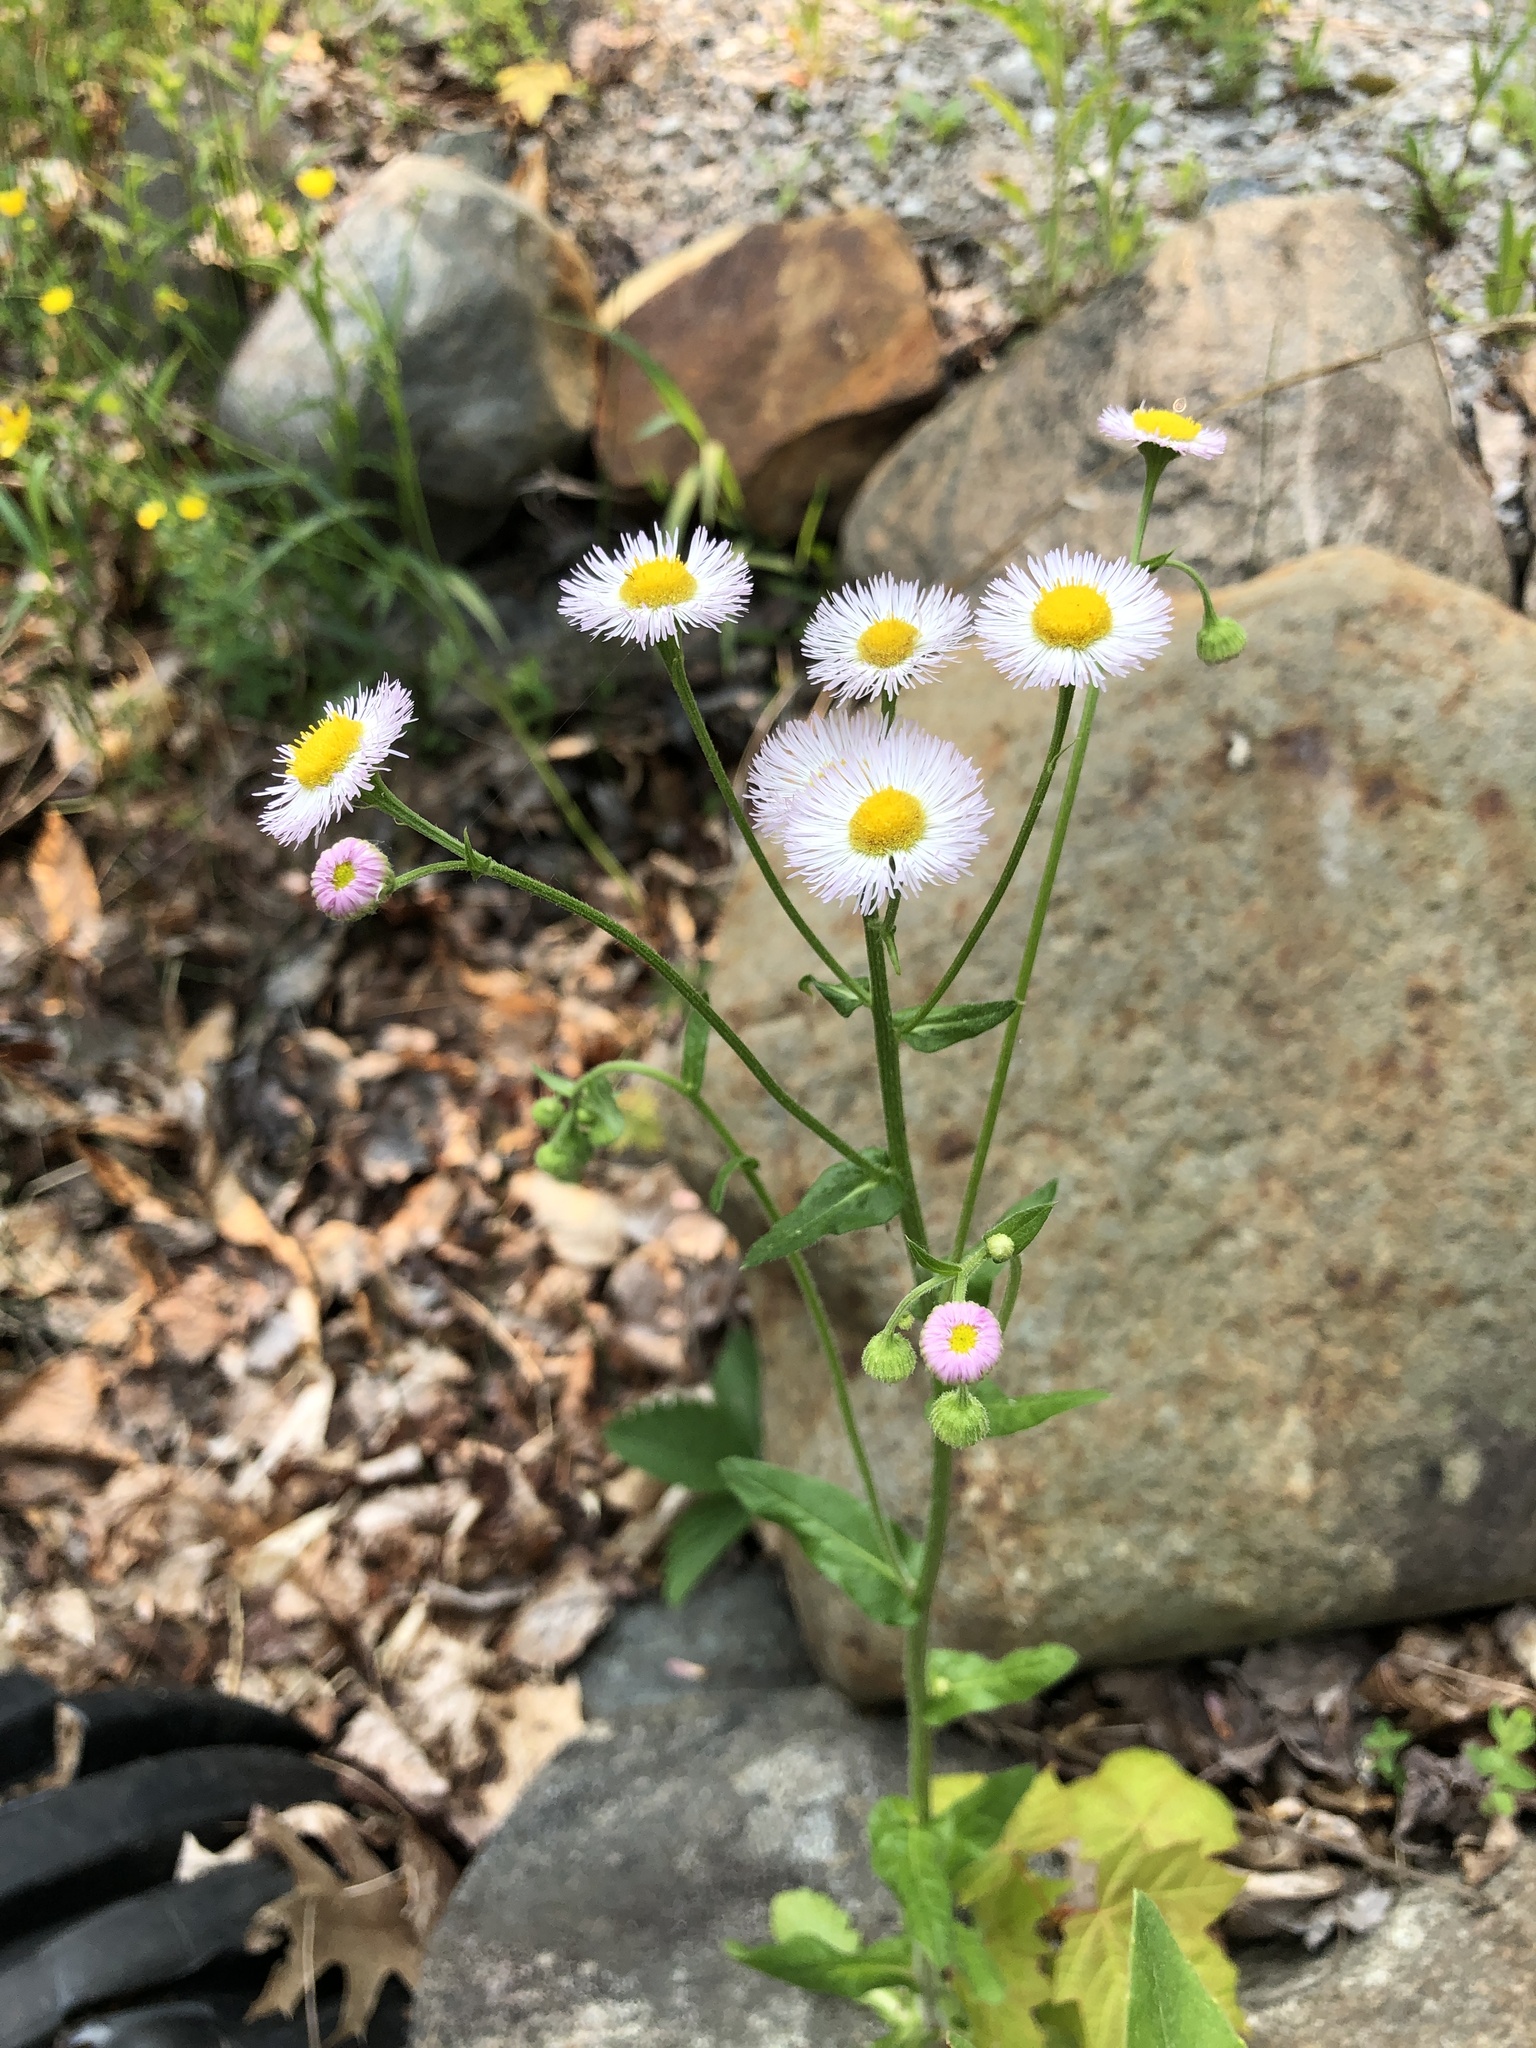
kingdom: Plantae
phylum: Tracheophyta
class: Magnoliopsida
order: Asterales
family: Asteraceae
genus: Erigeron
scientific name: Erigeron philadelphicus
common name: Robin's-plantain
